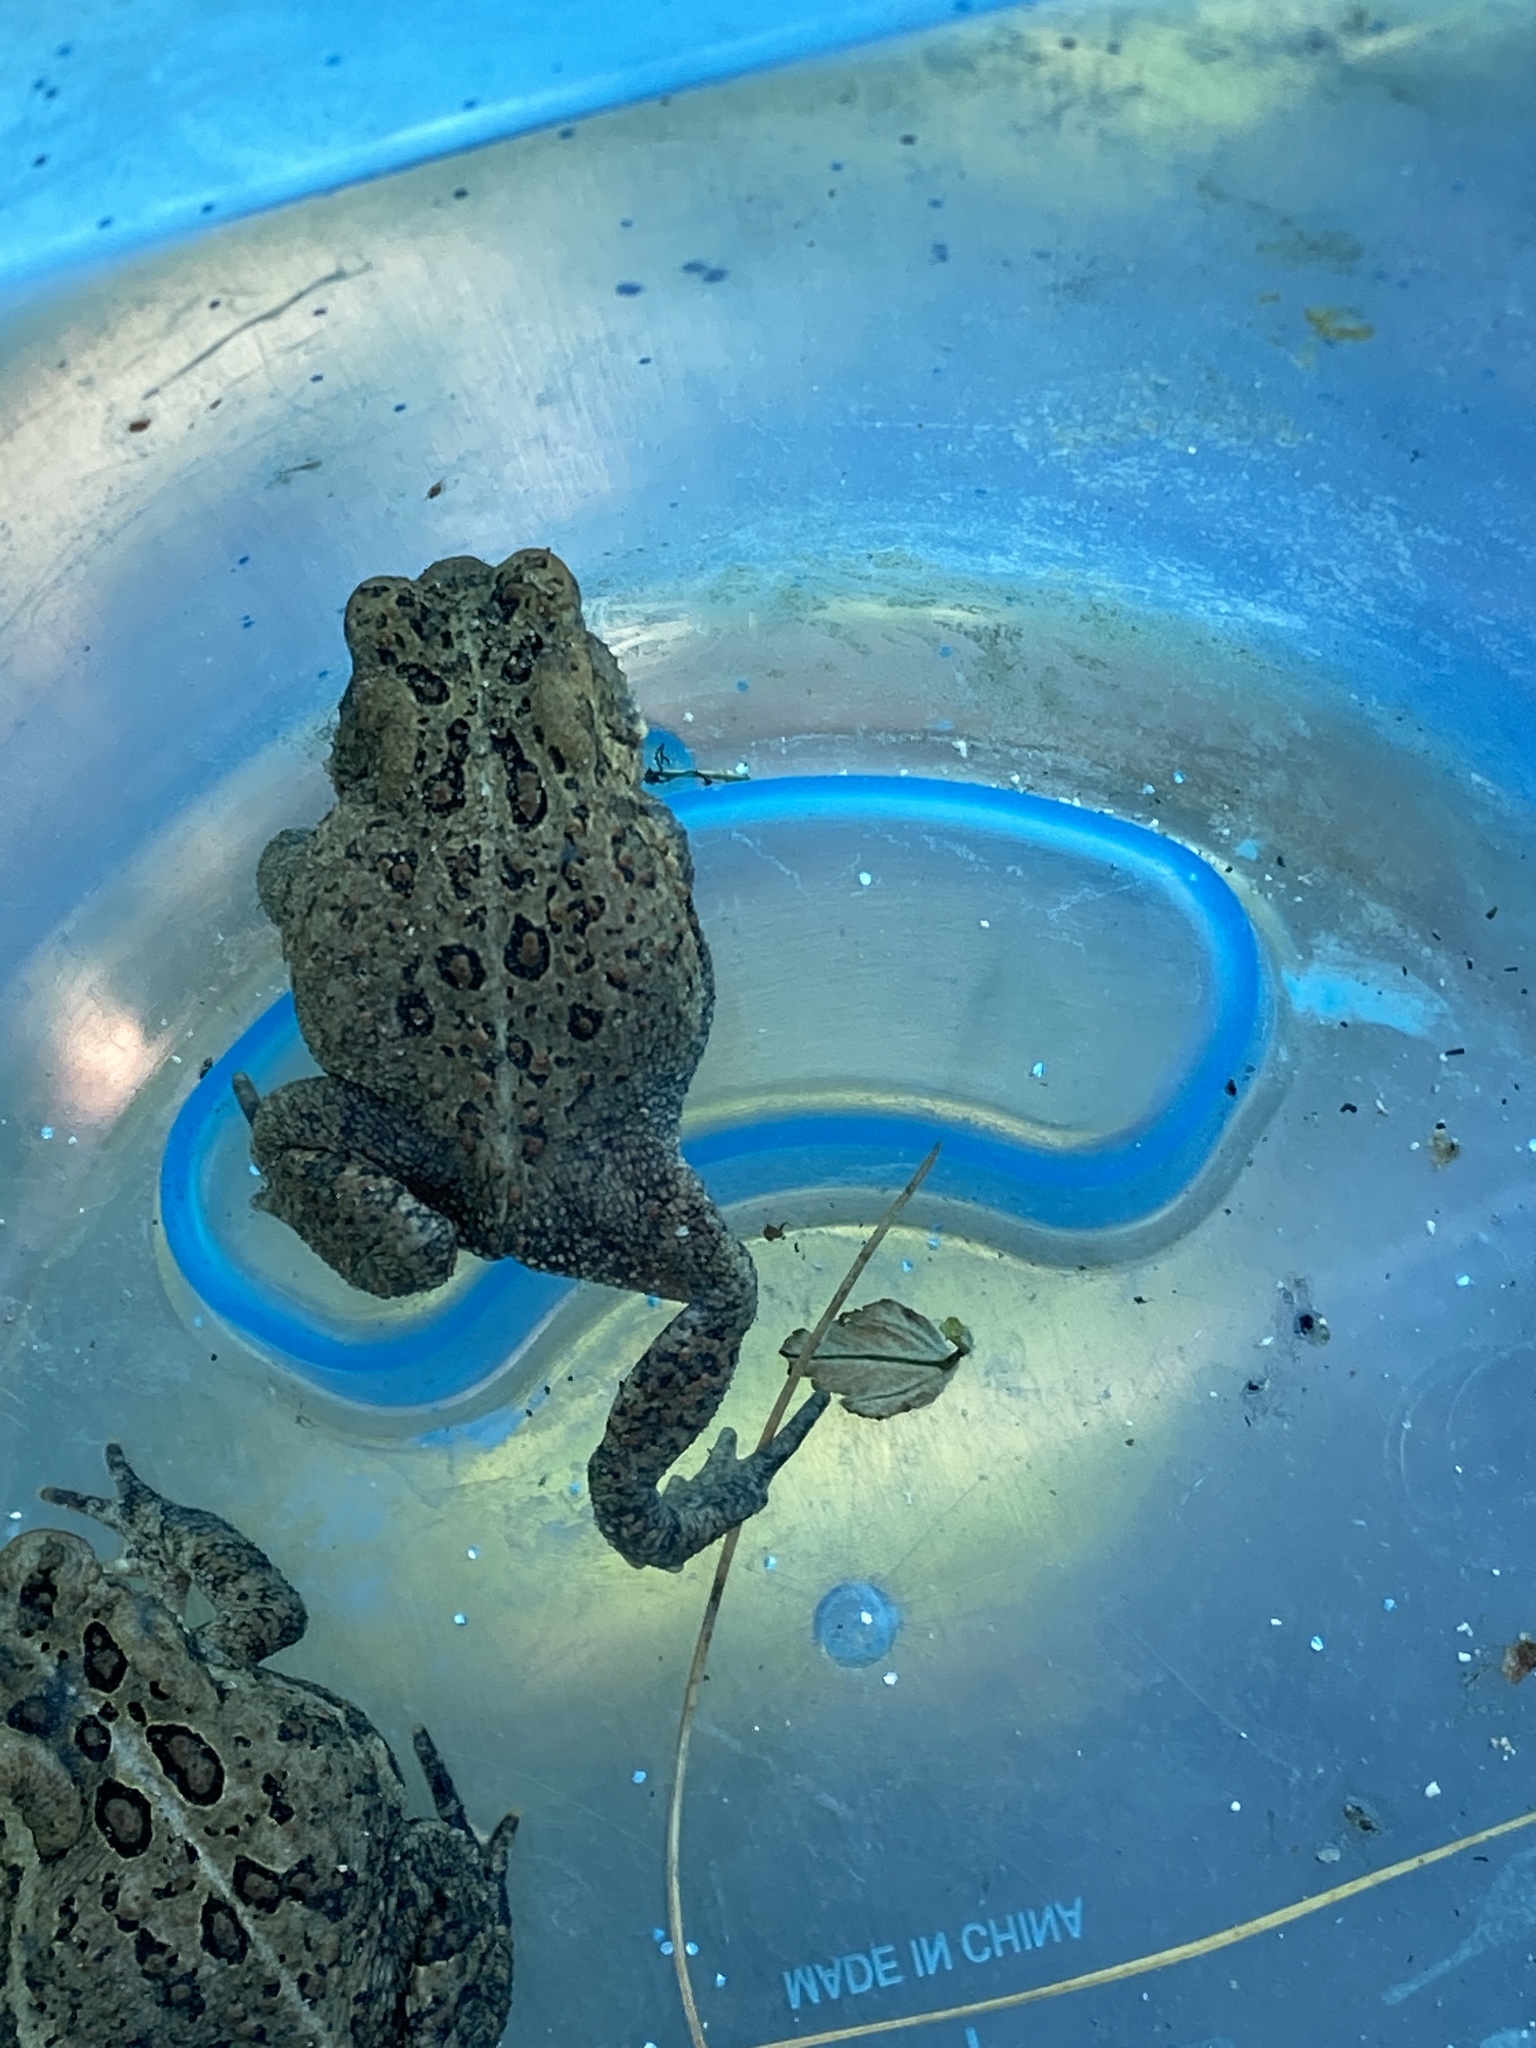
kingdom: Animalia
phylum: Chordata
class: Amphibia
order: Anura
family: Bufonidae
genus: Anaxyrus
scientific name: Anaxyrus americanus
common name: American toad
